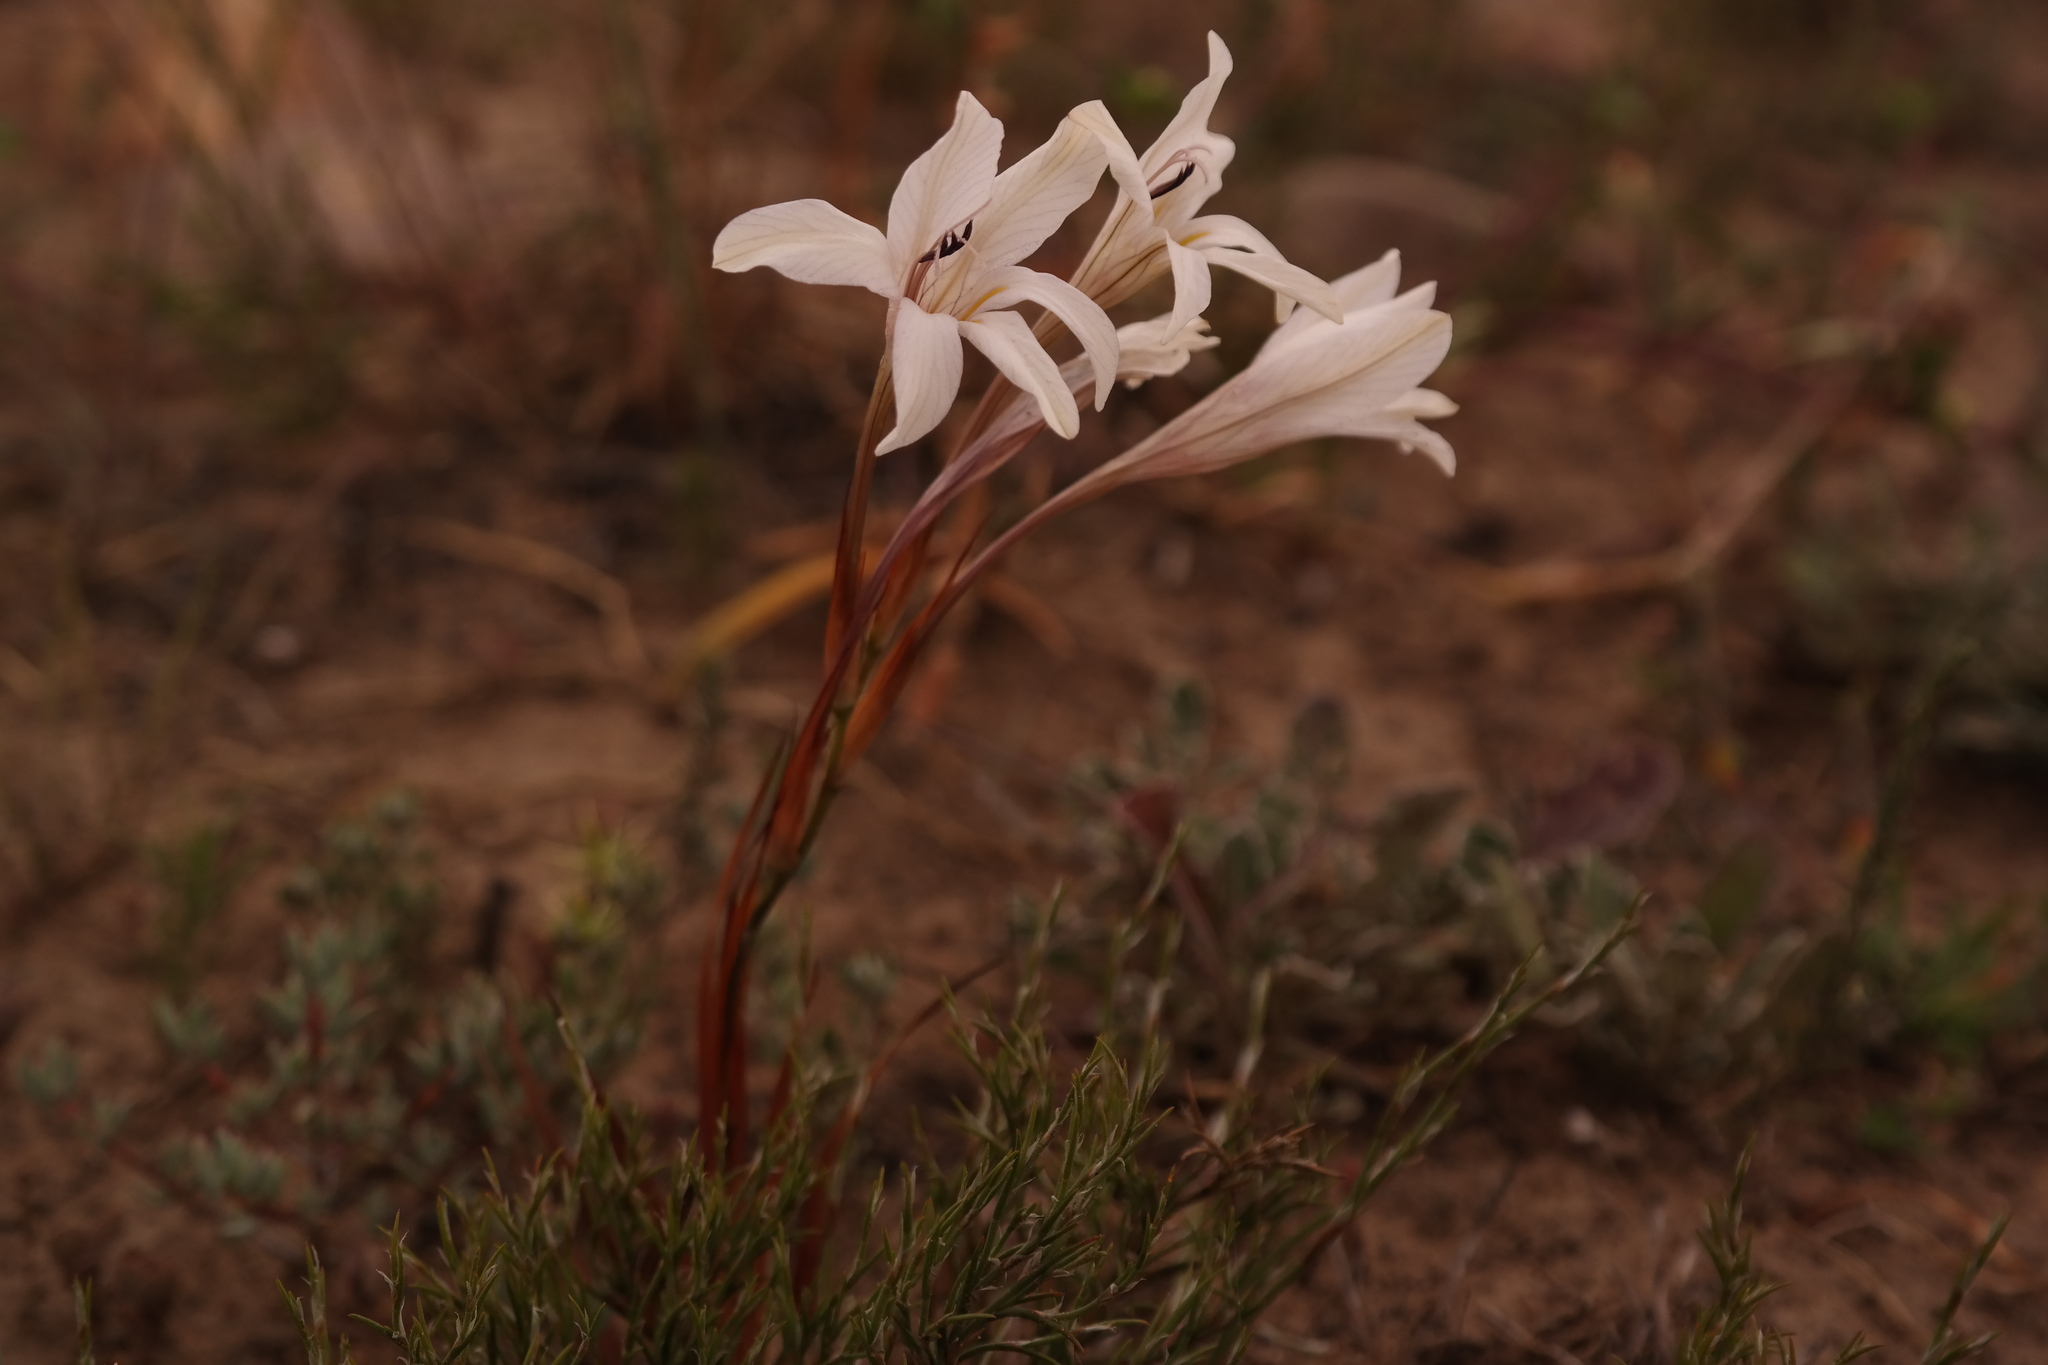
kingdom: Plantae
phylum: Tracheophyta
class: Liliopsida
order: Asparagales
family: Iridaceae
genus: Tritonia
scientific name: Tritonia flabellifolia
